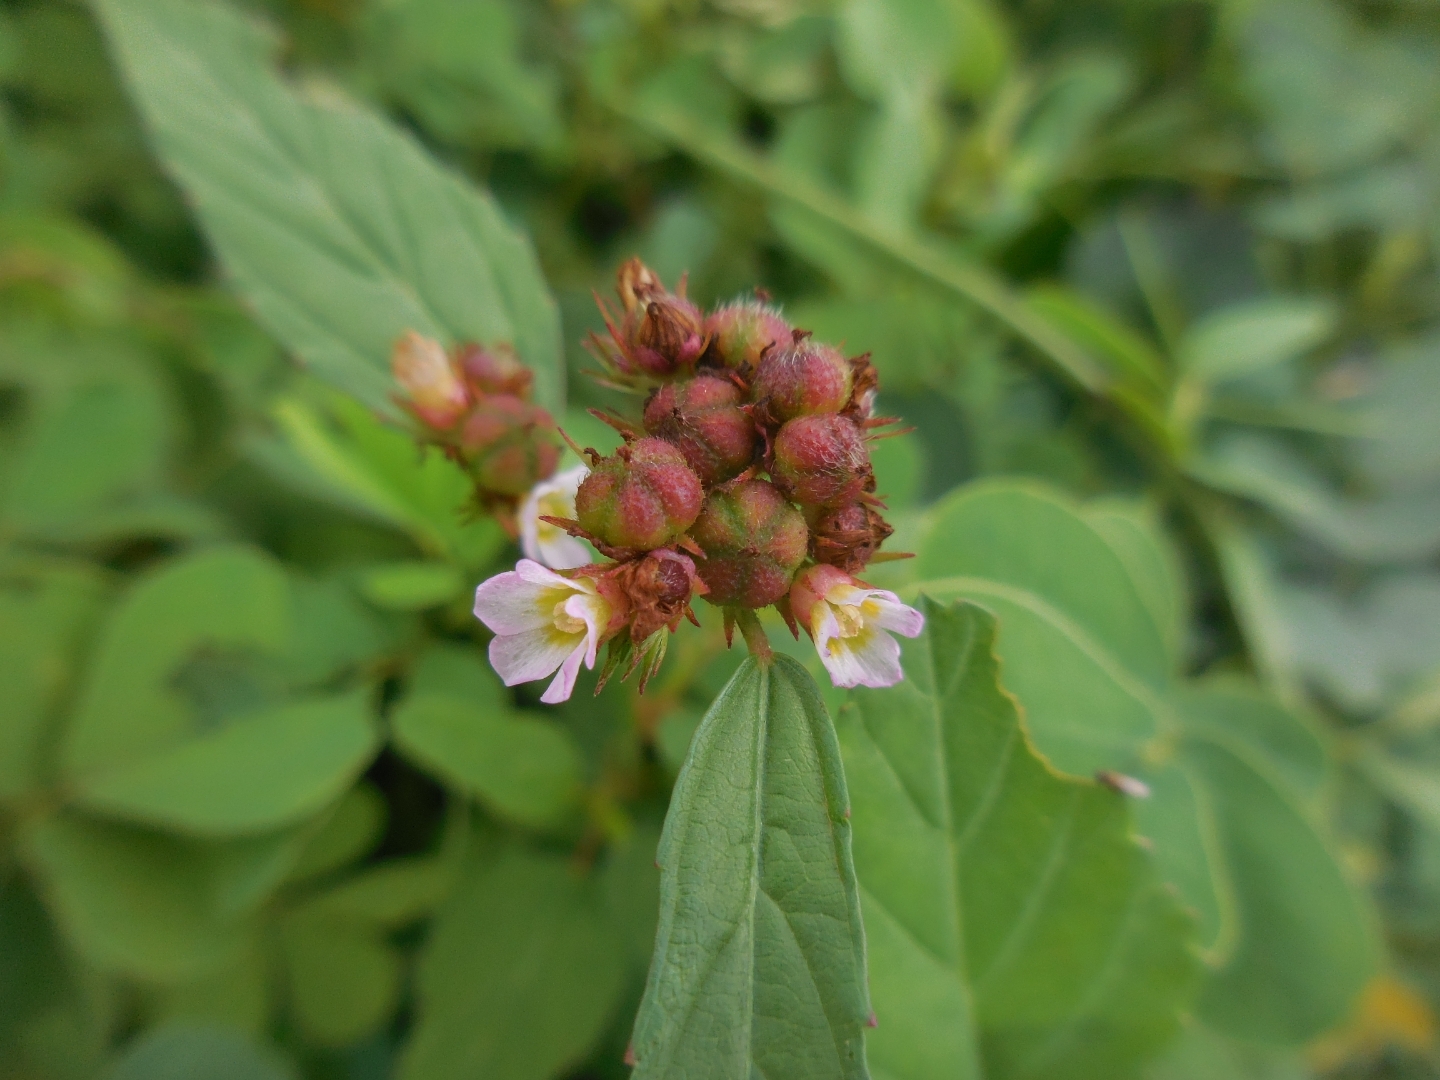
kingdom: Plantae
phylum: Tracheophyta
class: Magnoliopsida
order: Malvales
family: Malvaceae
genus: Melochia
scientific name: Melochia corchorifolia
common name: Chocolateweed
